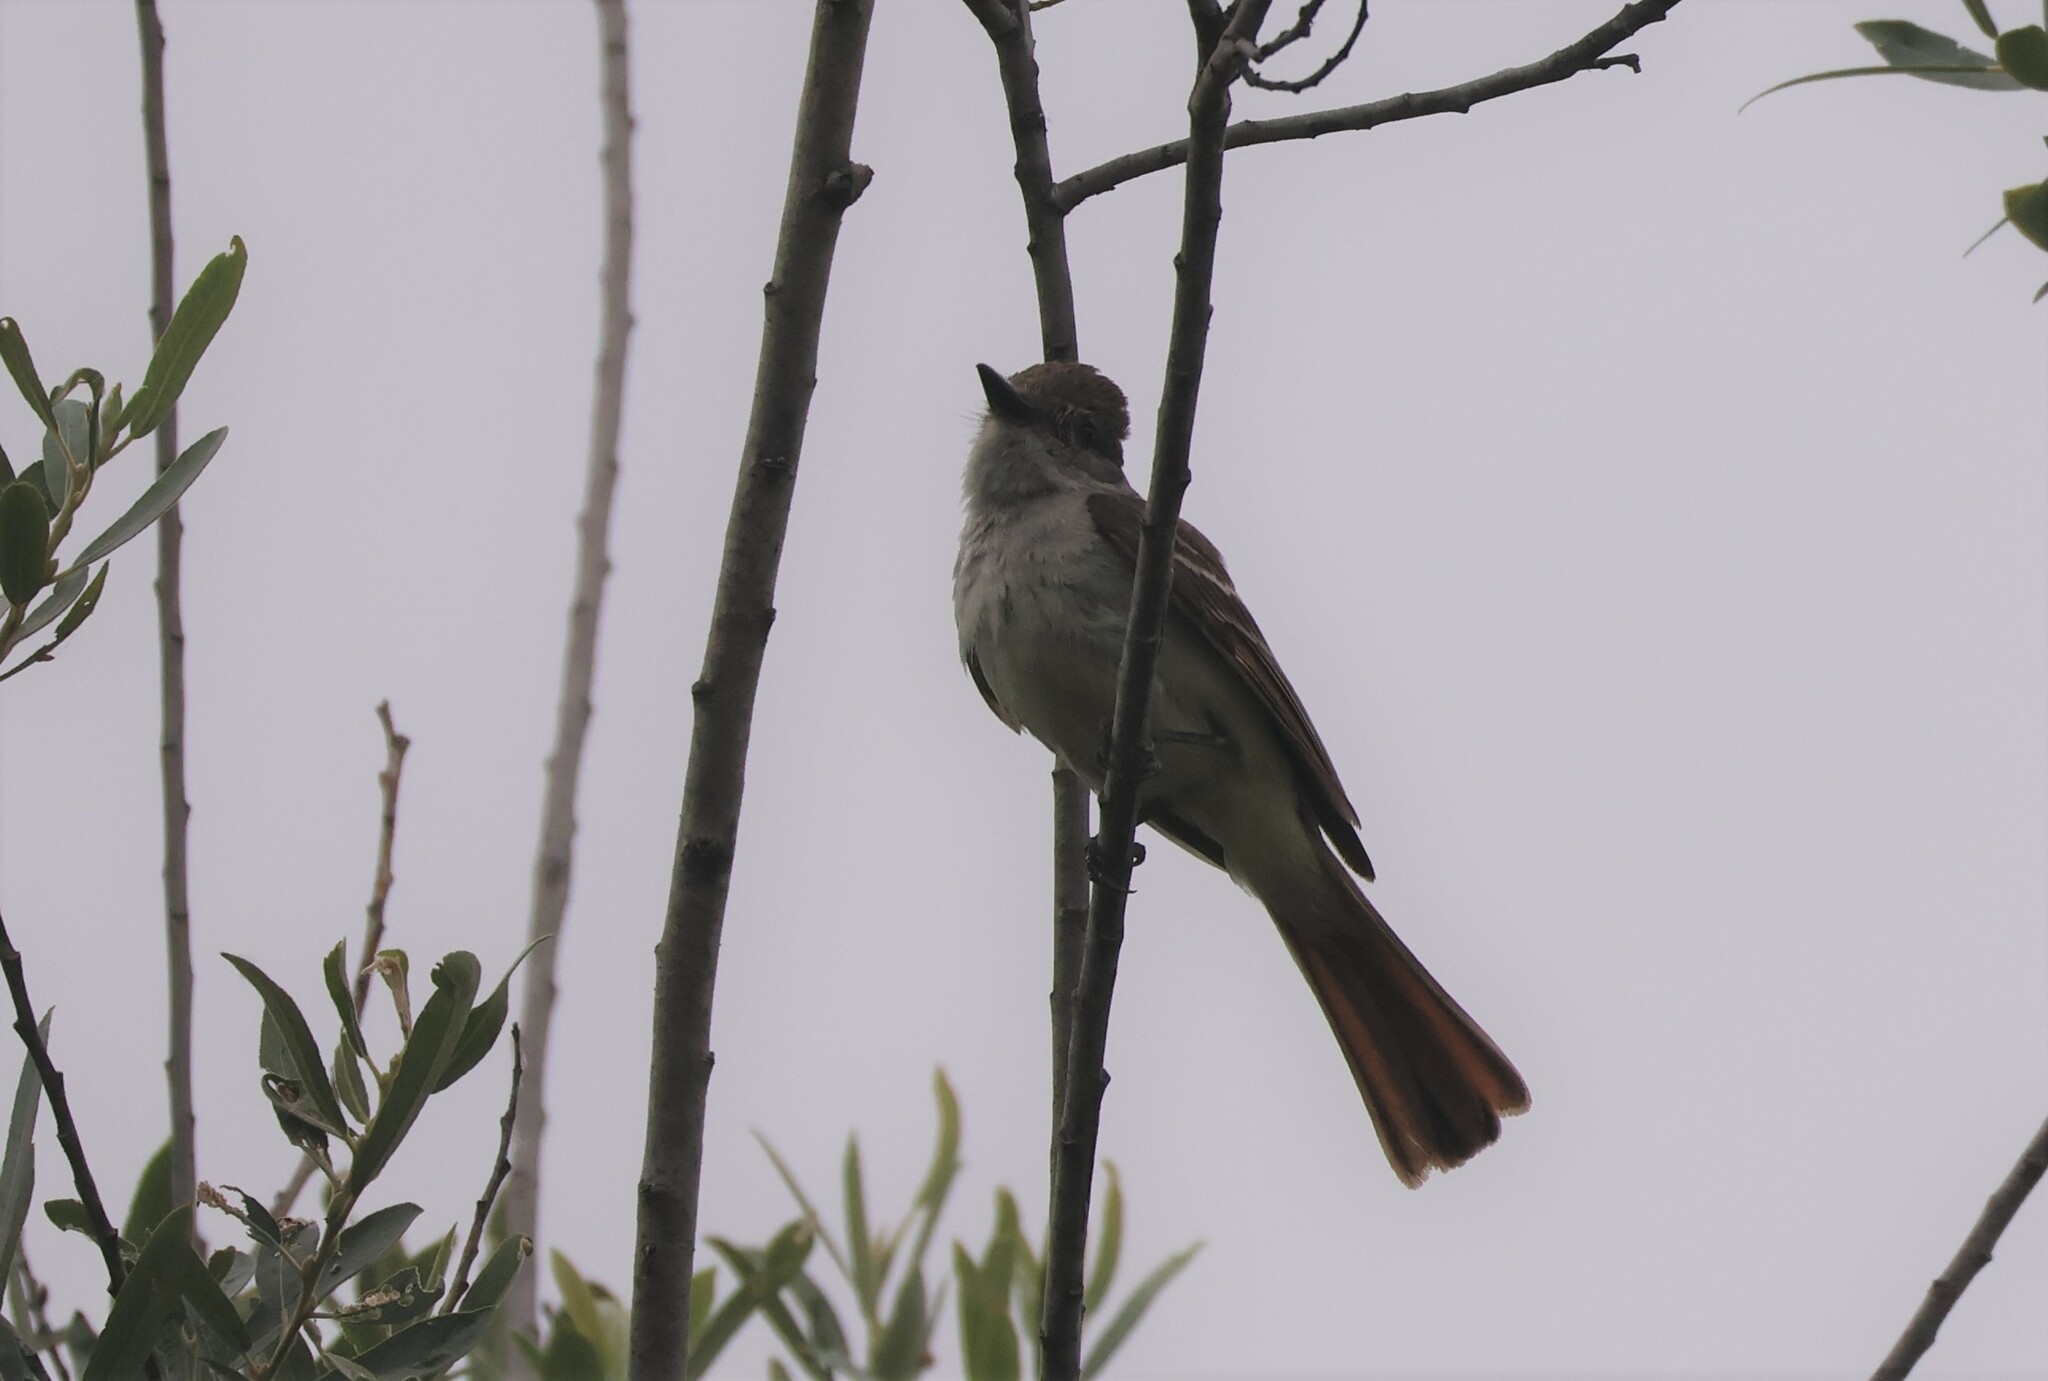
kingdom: Animalia
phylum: Chordata
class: Aves
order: Passeriformes
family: Tyrannidae
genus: Myiarchus
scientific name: Myiarchus cinerascens
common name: Ash-throated flycatcher
